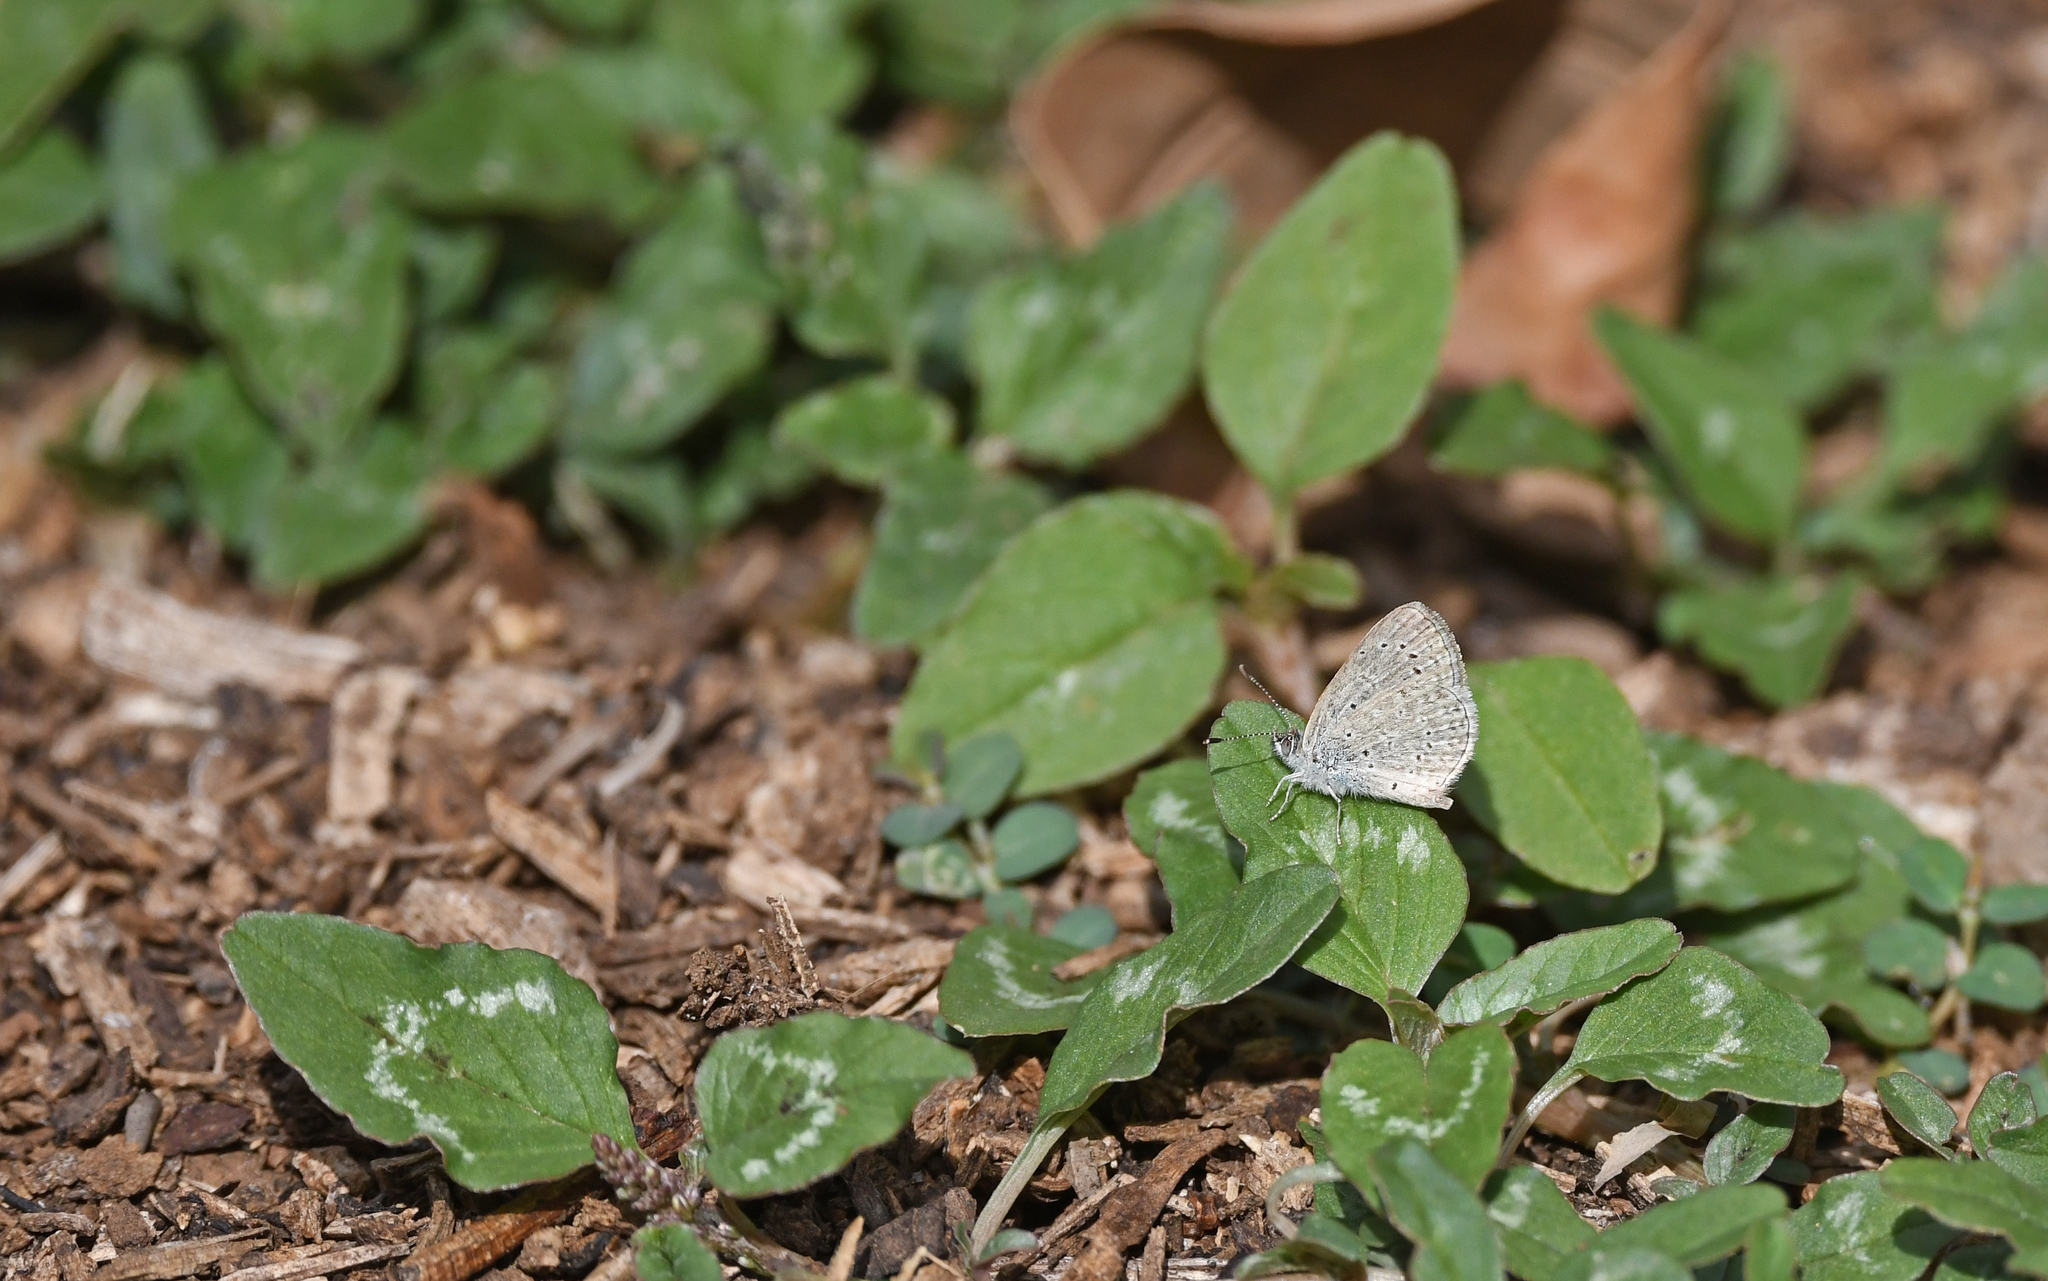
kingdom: Animalia
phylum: Arthropoda
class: Insecta
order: Lepidoptera
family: Lycaenidae
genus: Zizeeria
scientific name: Zizeeria knysna
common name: African grass blue
